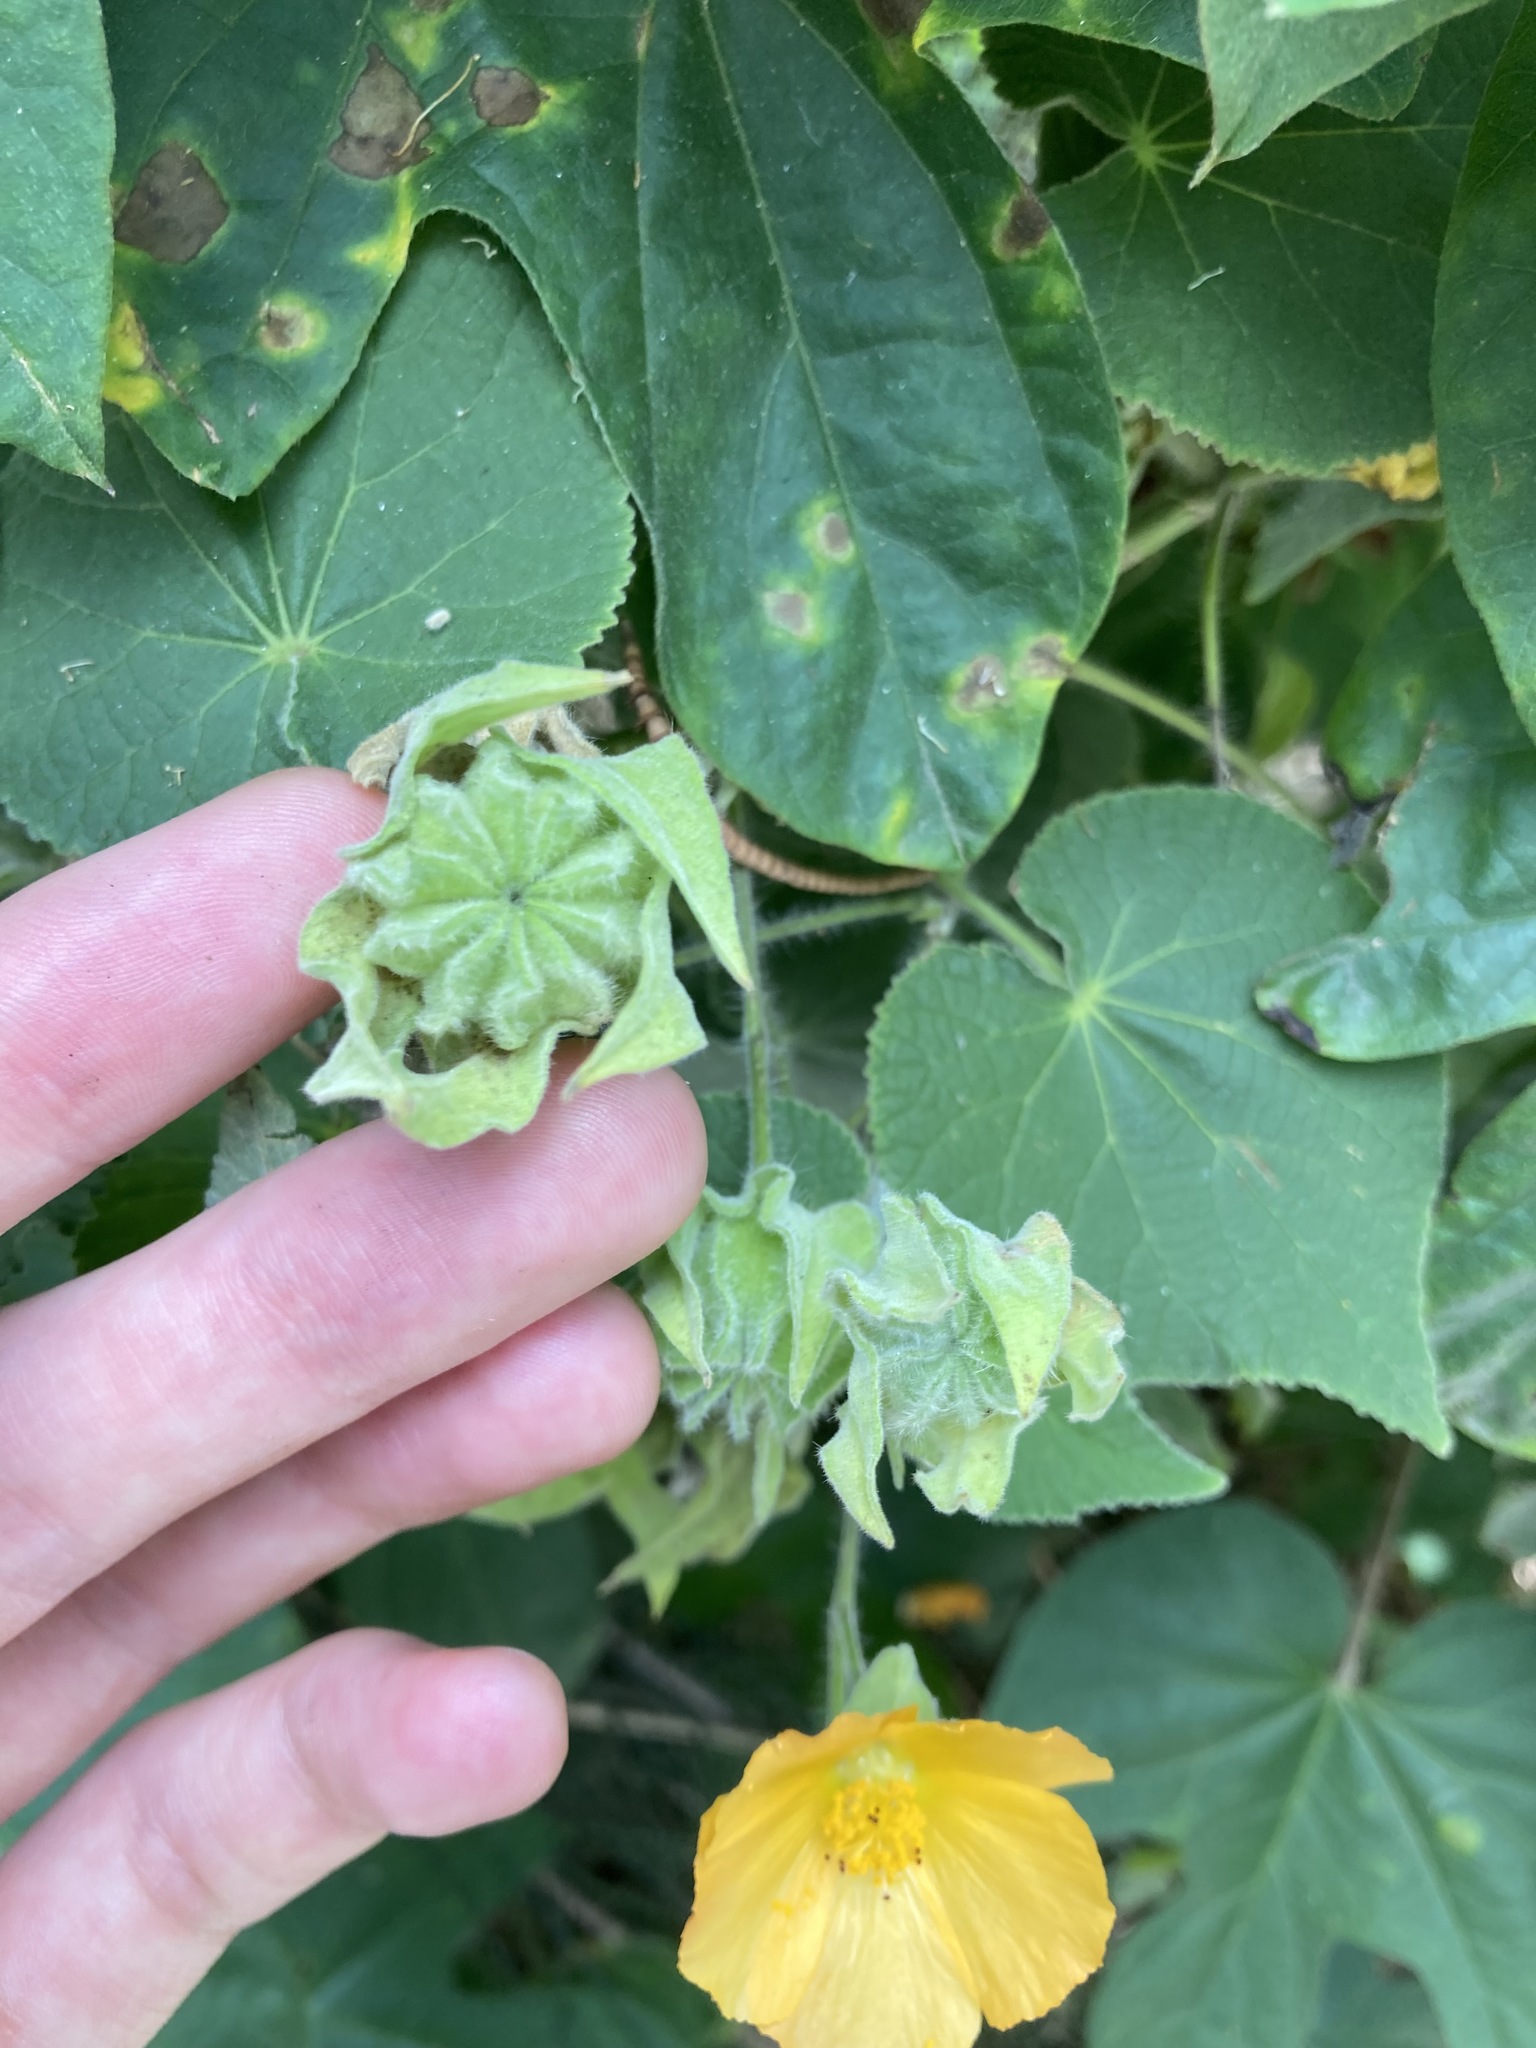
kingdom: Plantae
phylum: Tracheophyta
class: Magnoliopsida
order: Malvales
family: Malvaceae
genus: Abutilon
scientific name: Abutilon grandifolium
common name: Hairy abutilon
